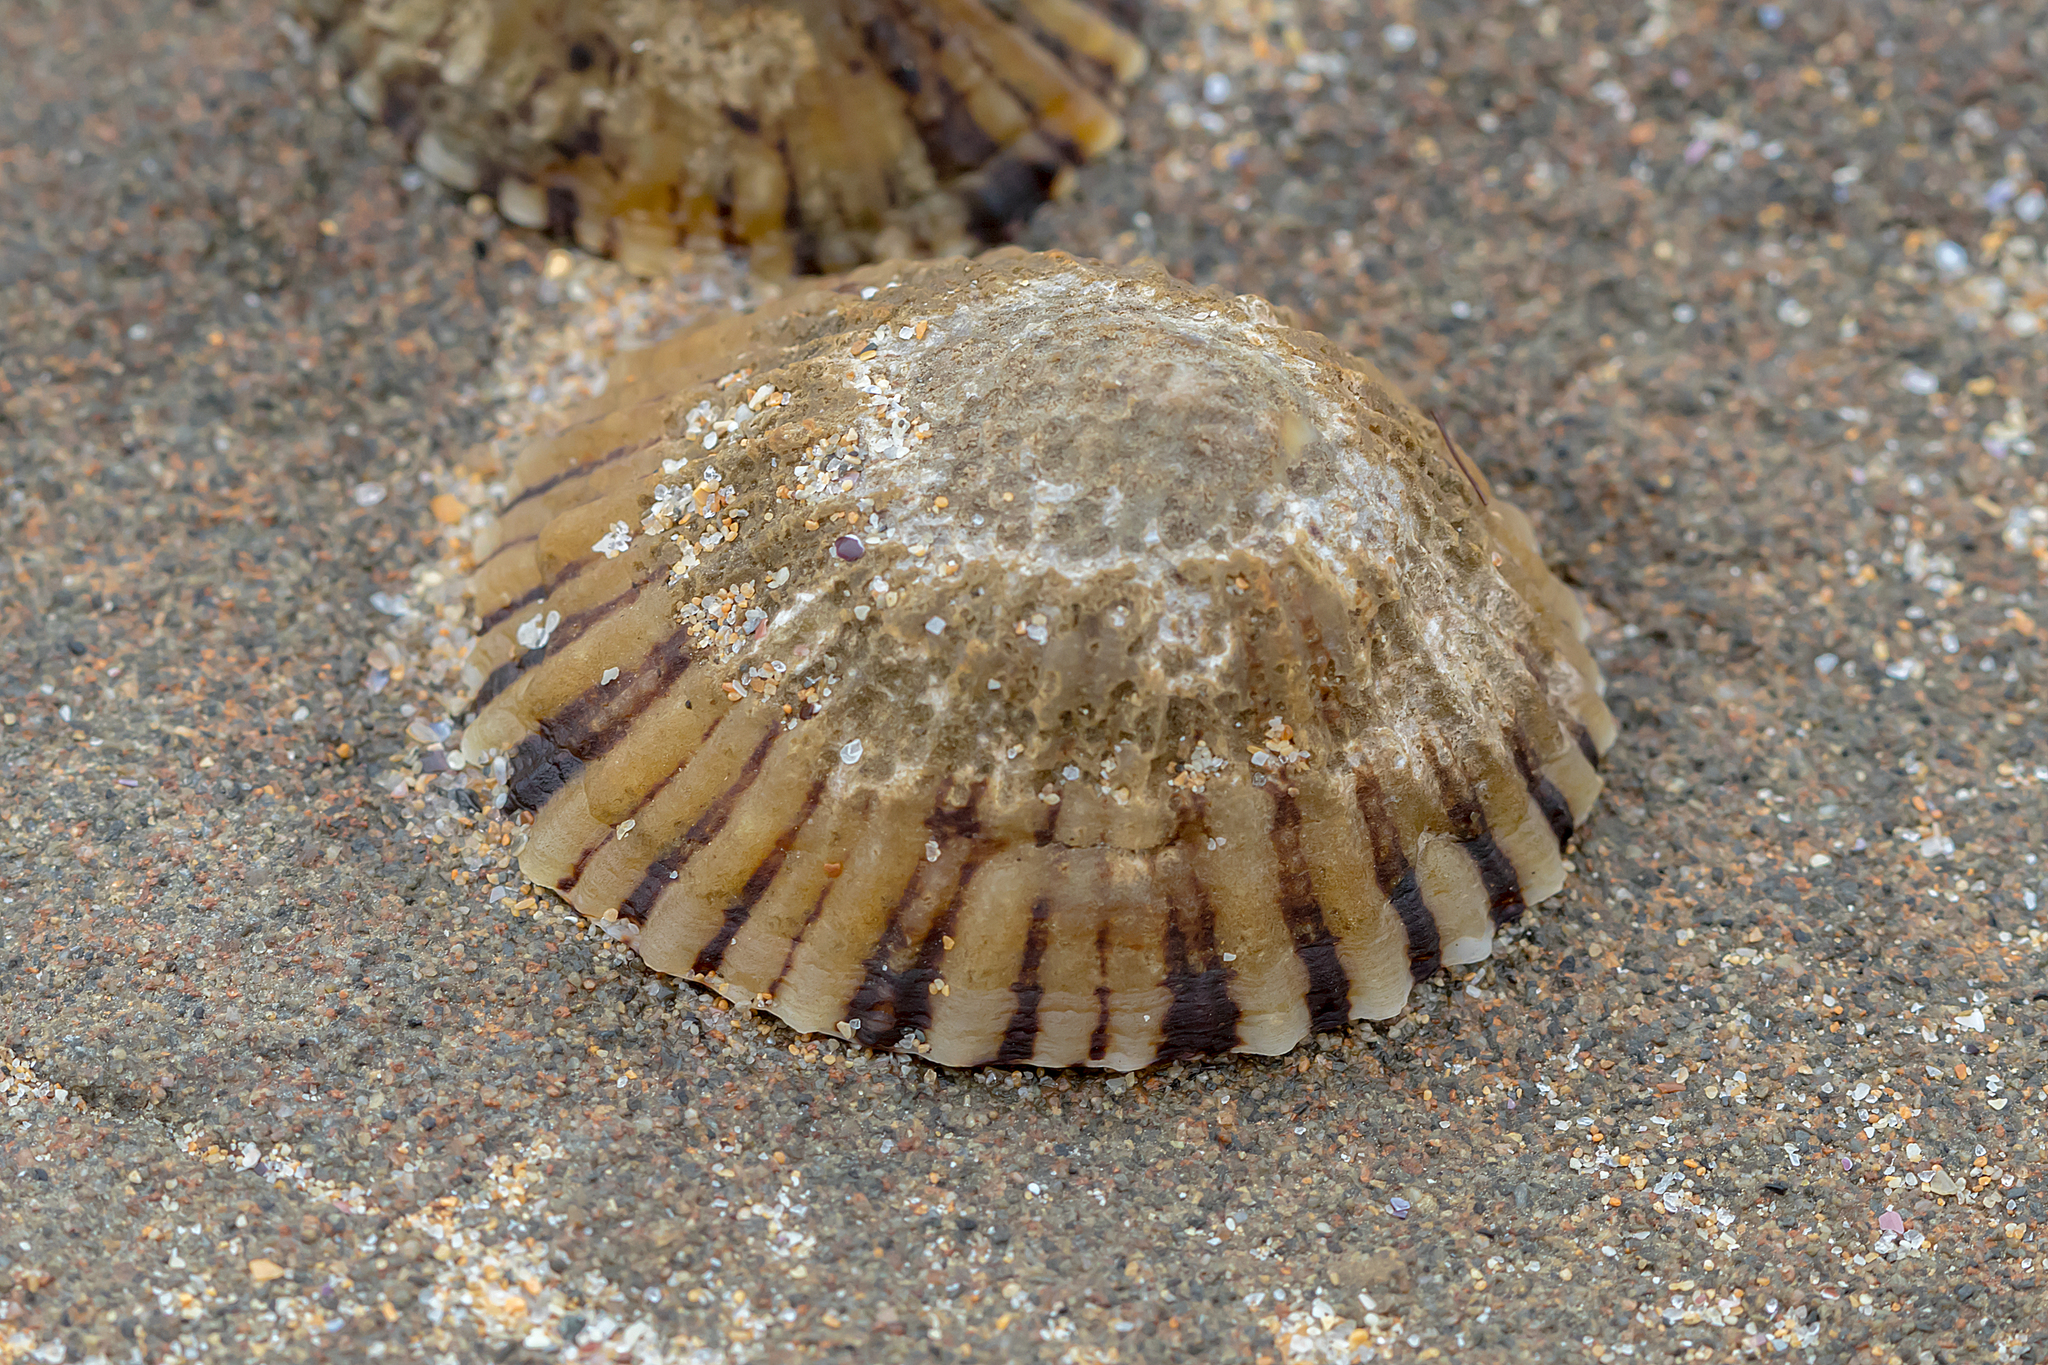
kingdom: Animalia
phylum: Mollusca
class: Gastropoda
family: Nacellidae
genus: Cellana
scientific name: Cellana tramoserica
